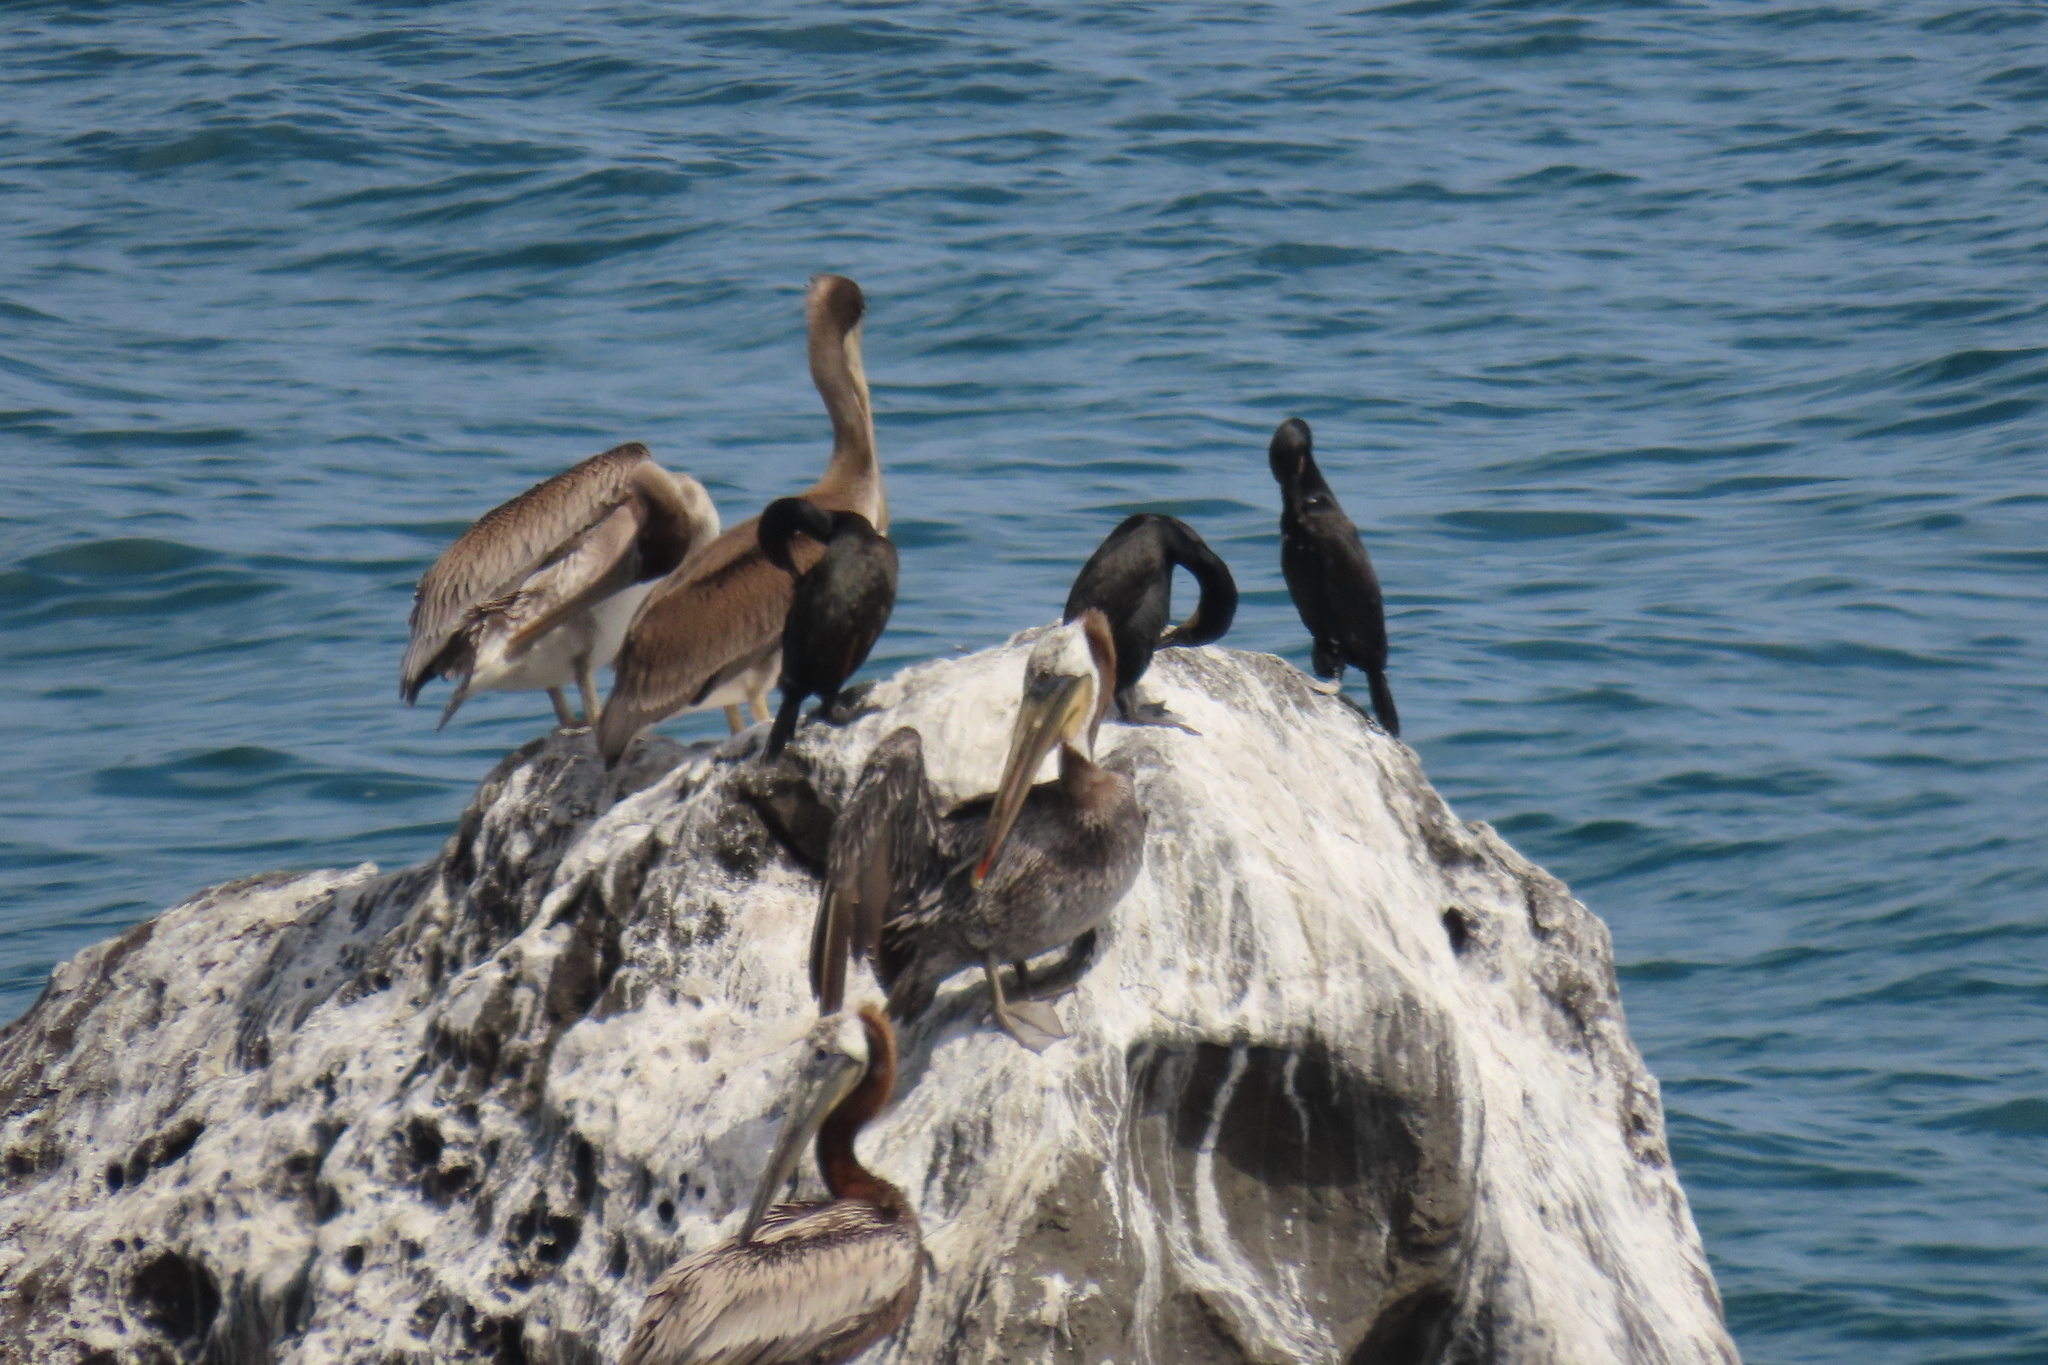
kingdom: Animalia
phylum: Chordata
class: Aves
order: Pelecaniformes
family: Pelecanidae
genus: Pelecanus
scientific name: Pelecanus occidentalis
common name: Brown pelican
